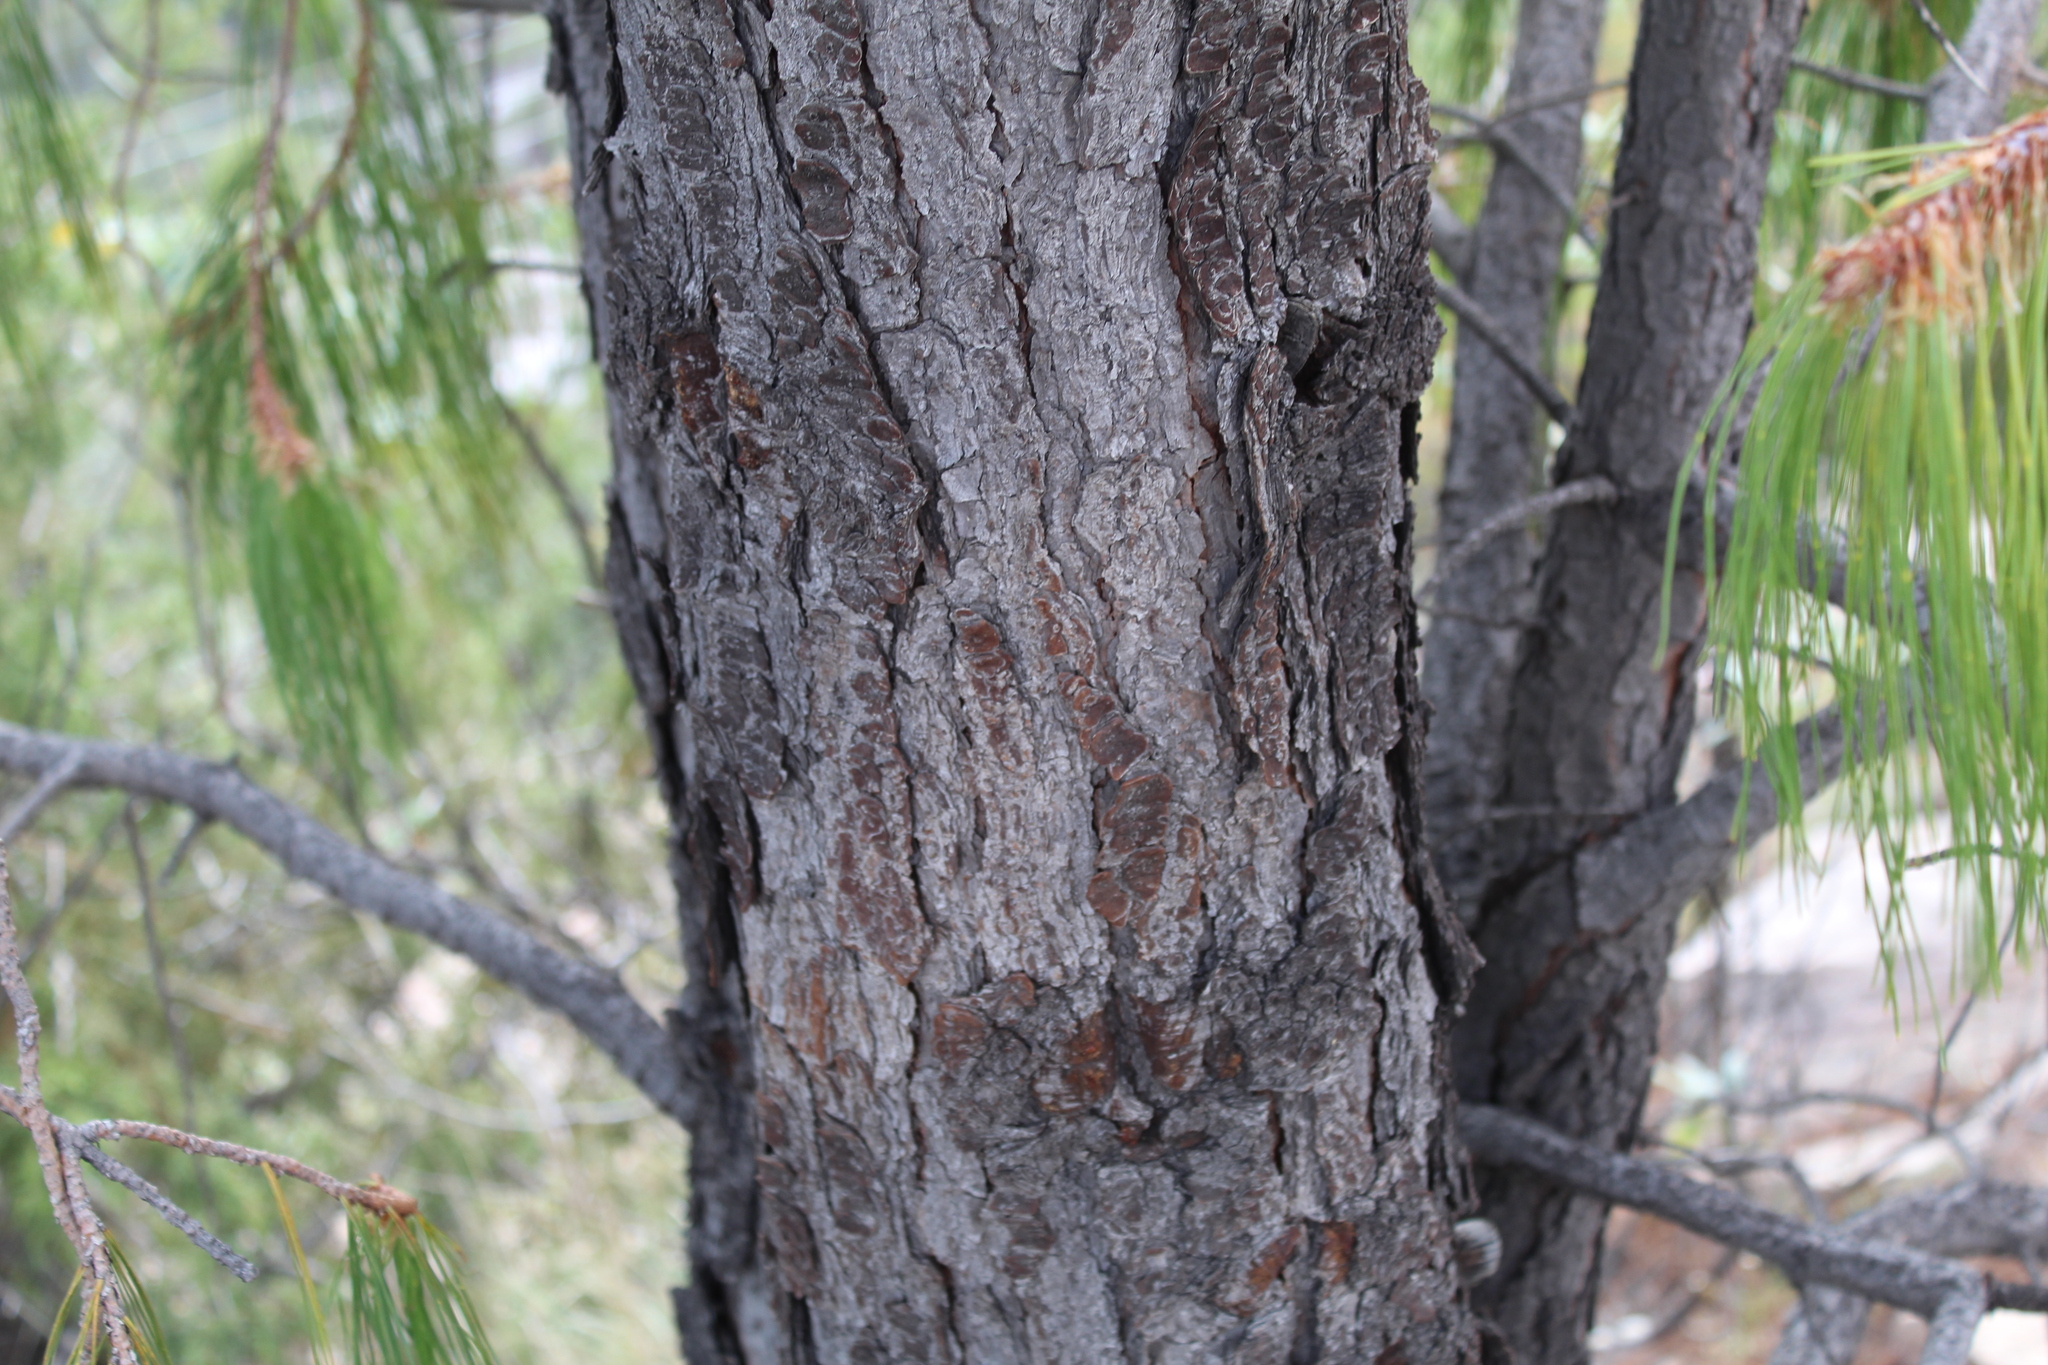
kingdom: Plantae
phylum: Tracheophyta
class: Pinopsida
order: Pinales
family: Pinaceae
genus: Pinus
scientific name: Pinus lumholtzii
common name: Lumholtz's pine
